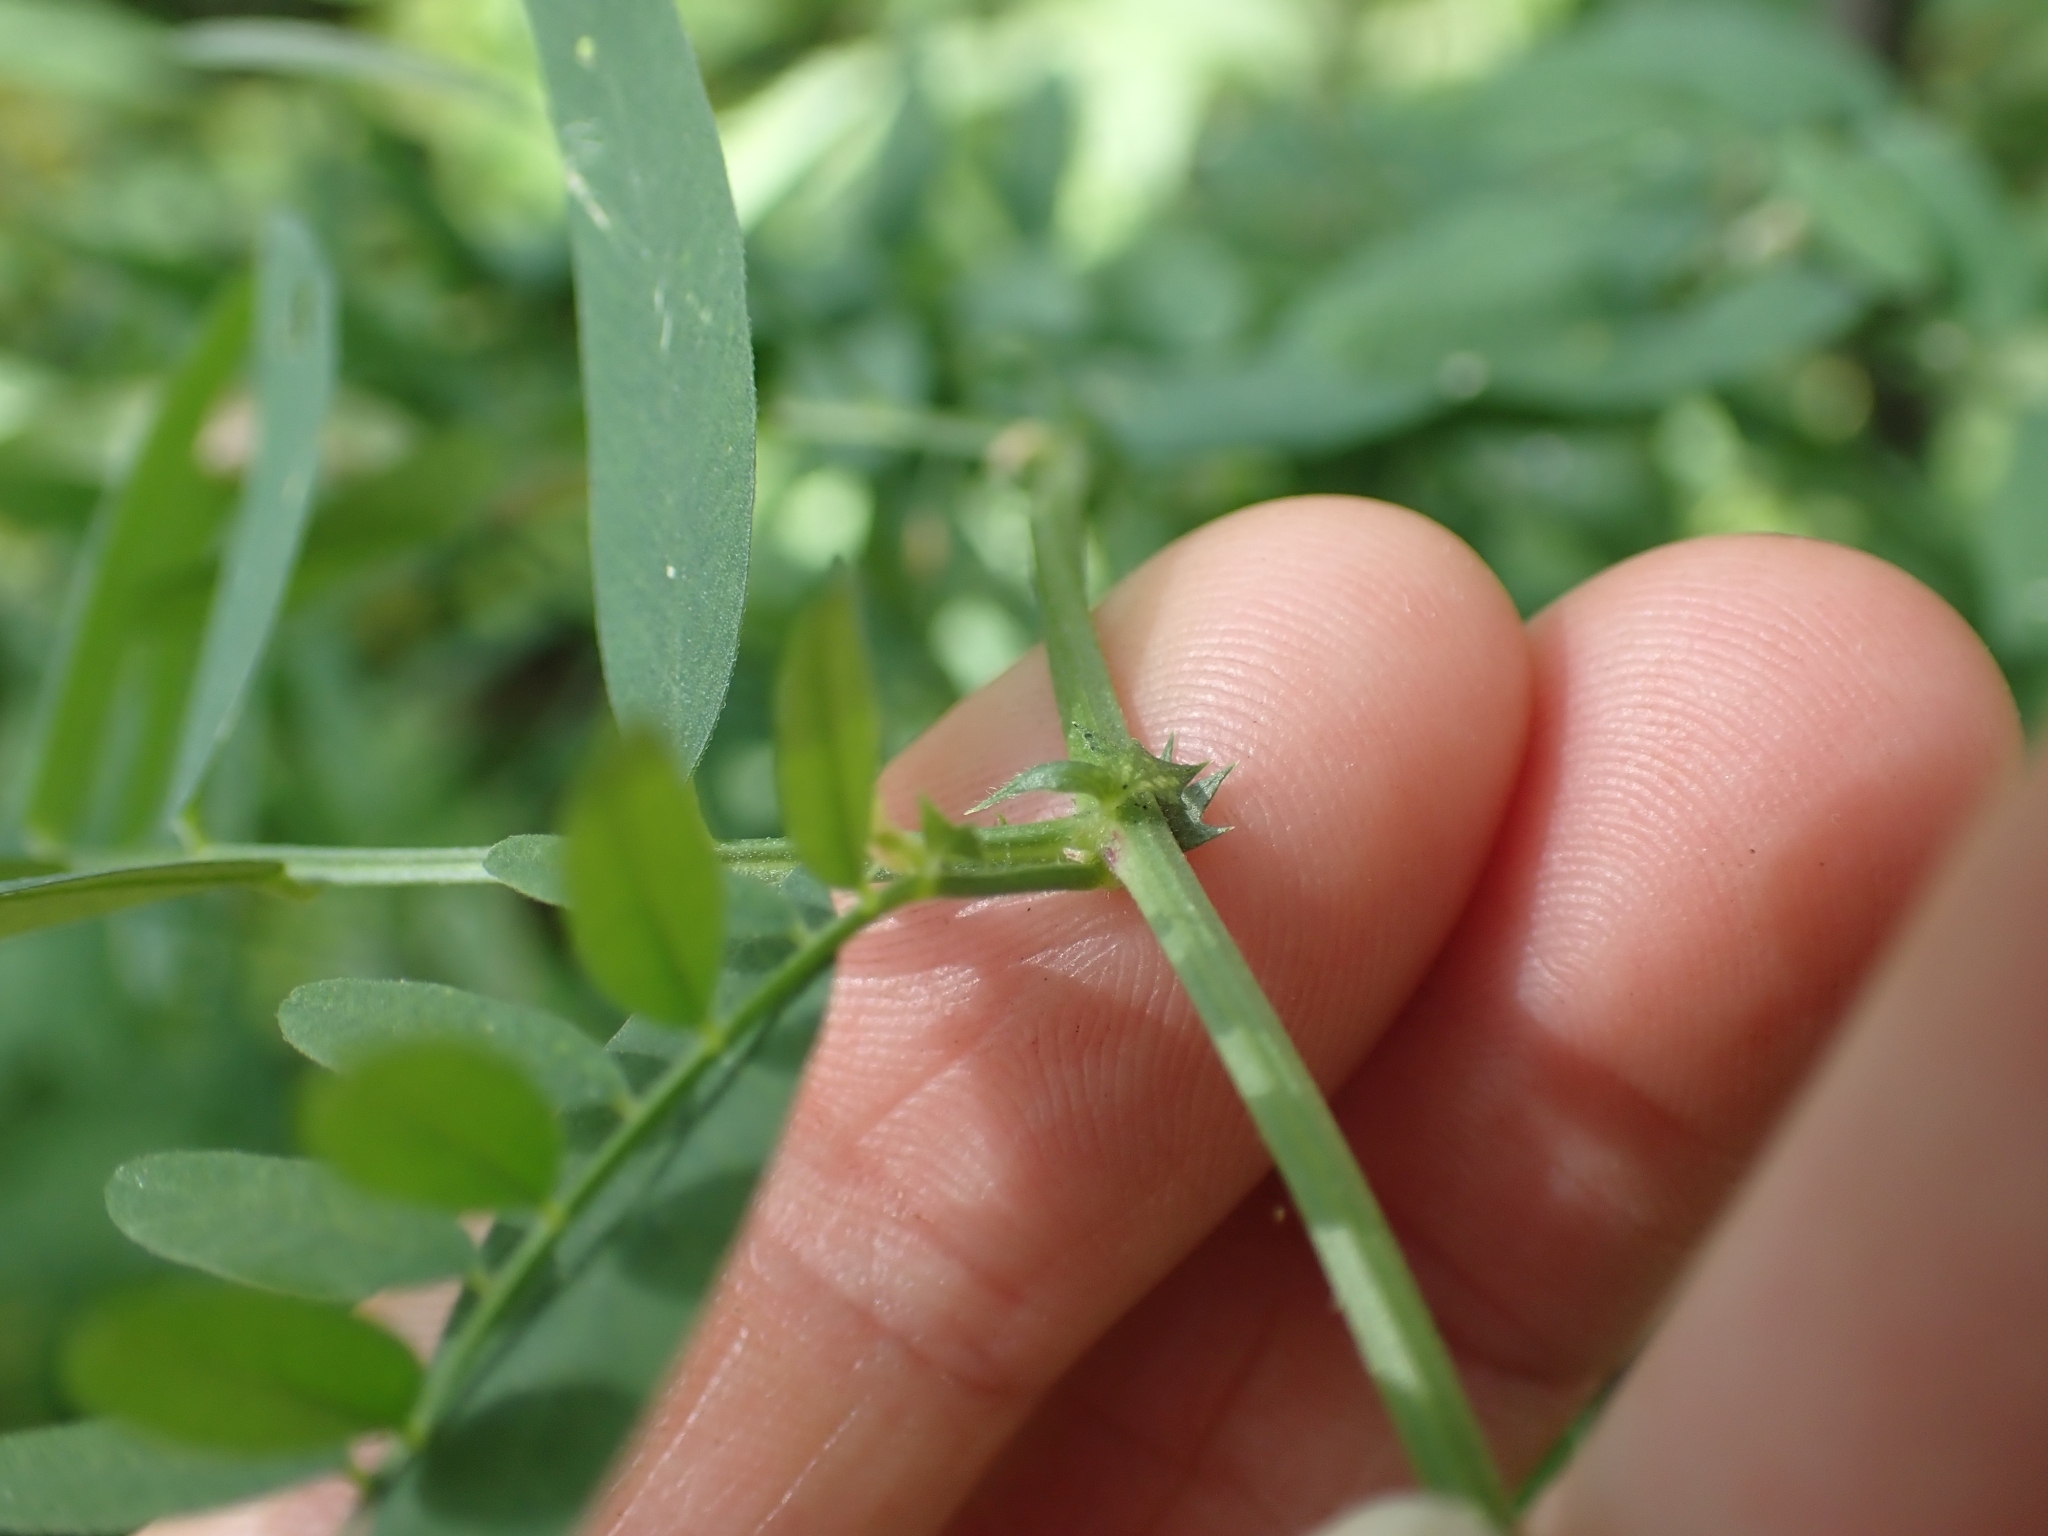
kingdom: Plantae
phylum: Tracheophyta
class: Magnoliopsida
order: Fabales
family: Fabaceae
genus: Vicia
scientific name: Vicia americana
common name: American vetch
